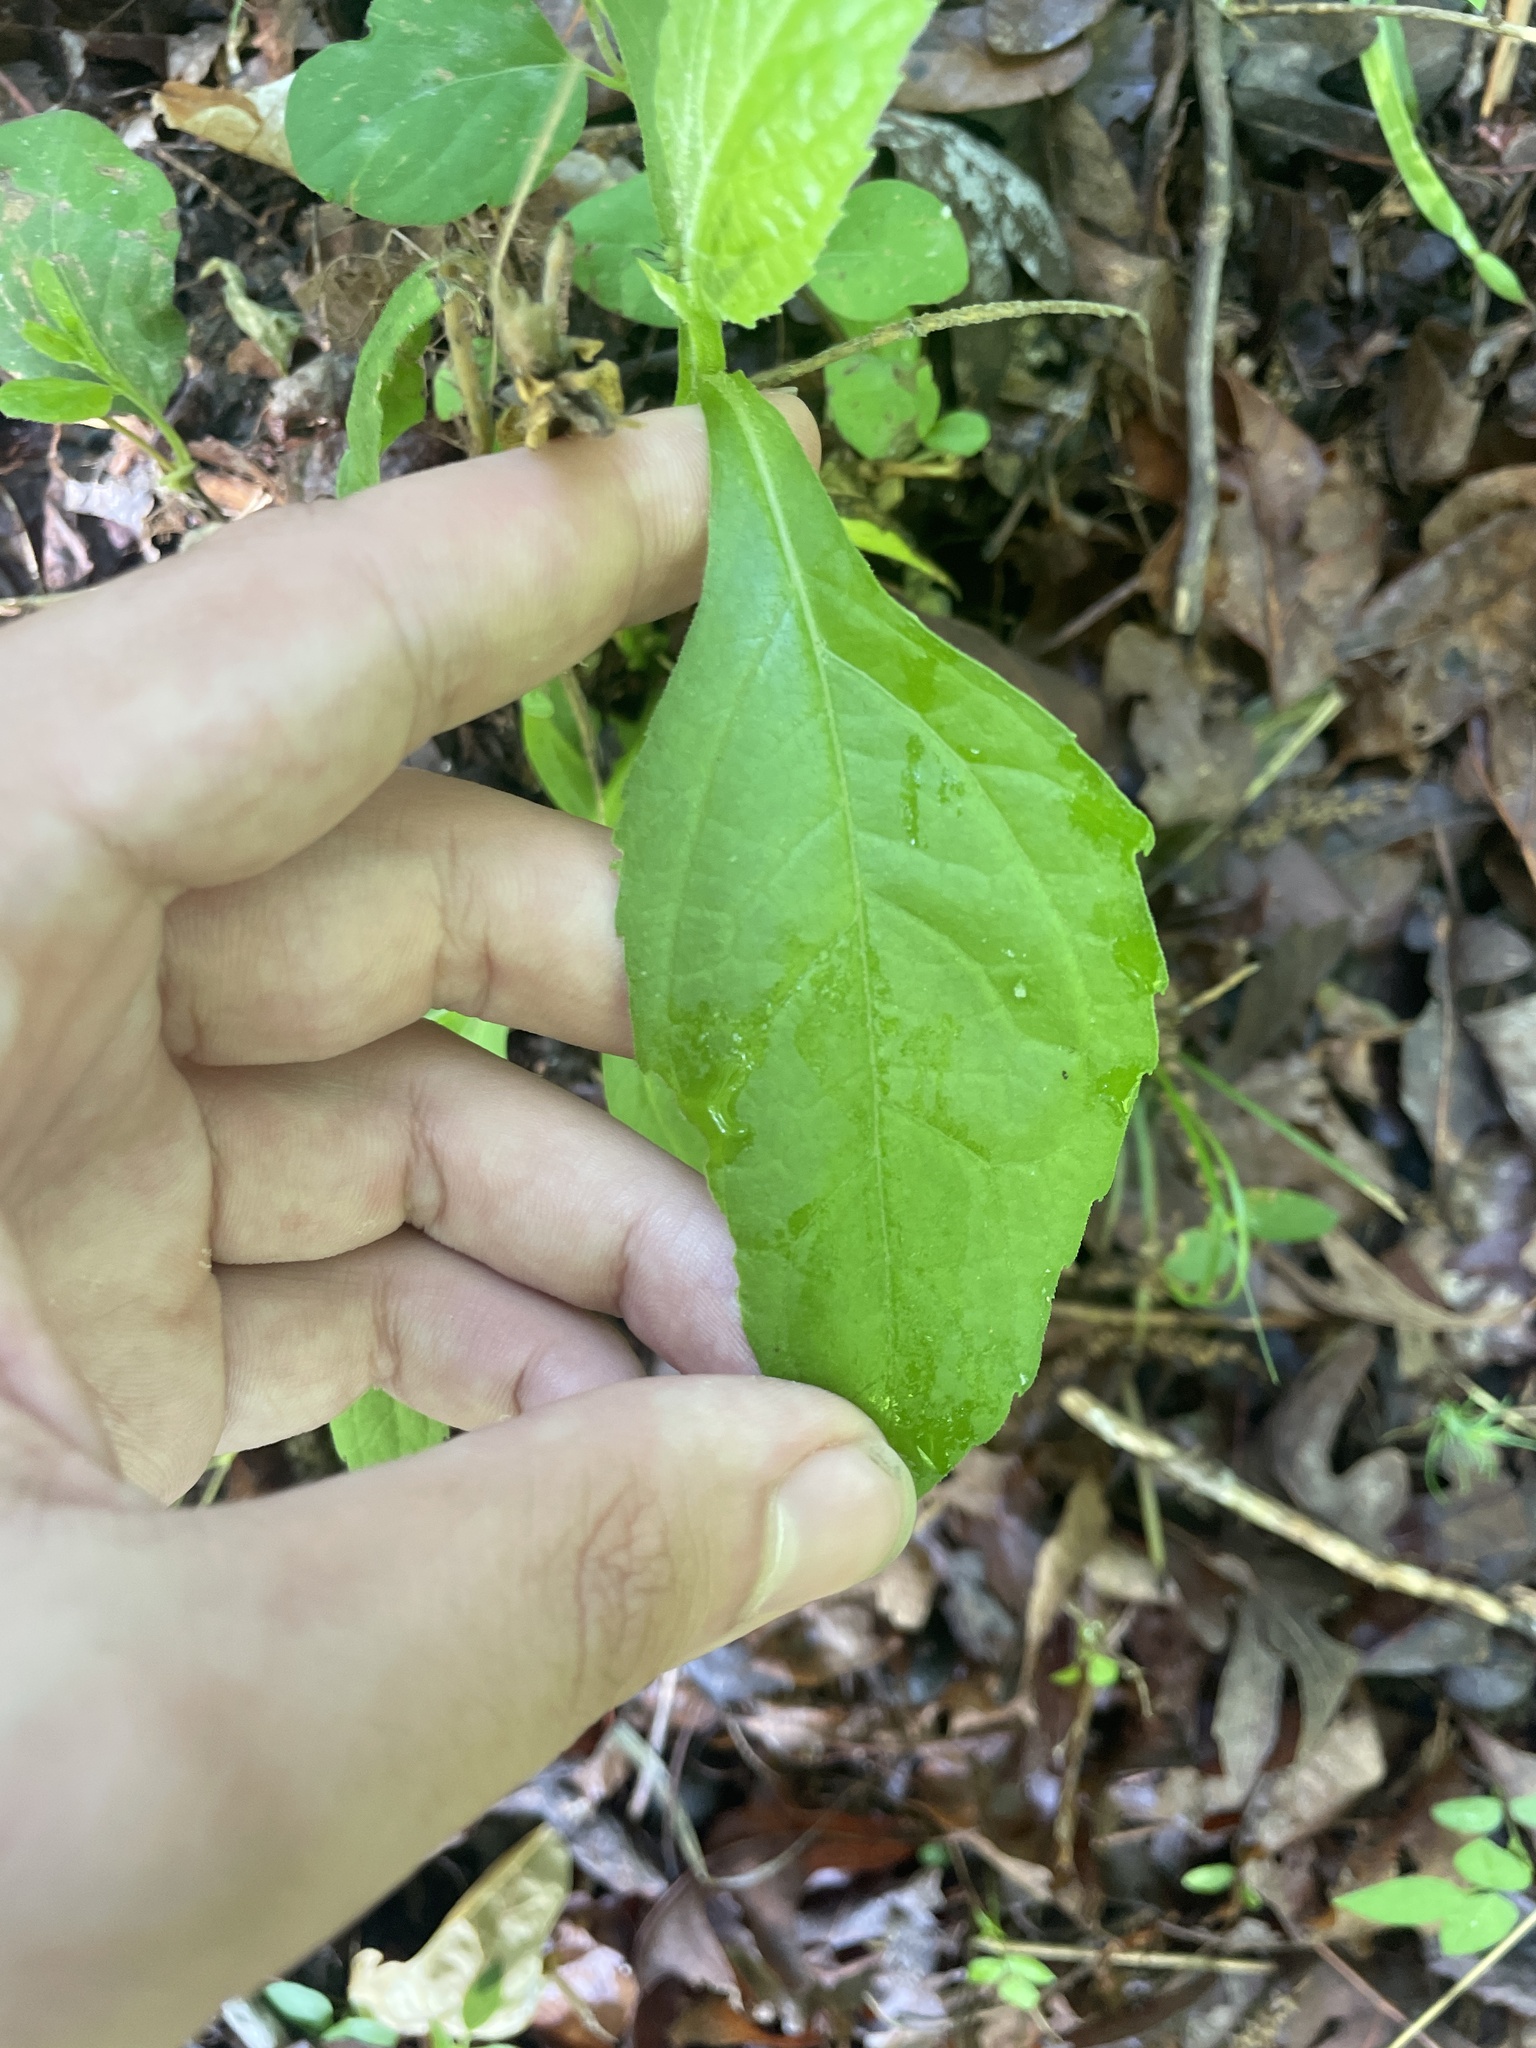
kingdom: Plantae
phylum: Tracheophyta
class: Magnoliopsida
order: Asterales
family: Asteraceae
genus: Verbesina
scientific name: Verbesina occidentalis
